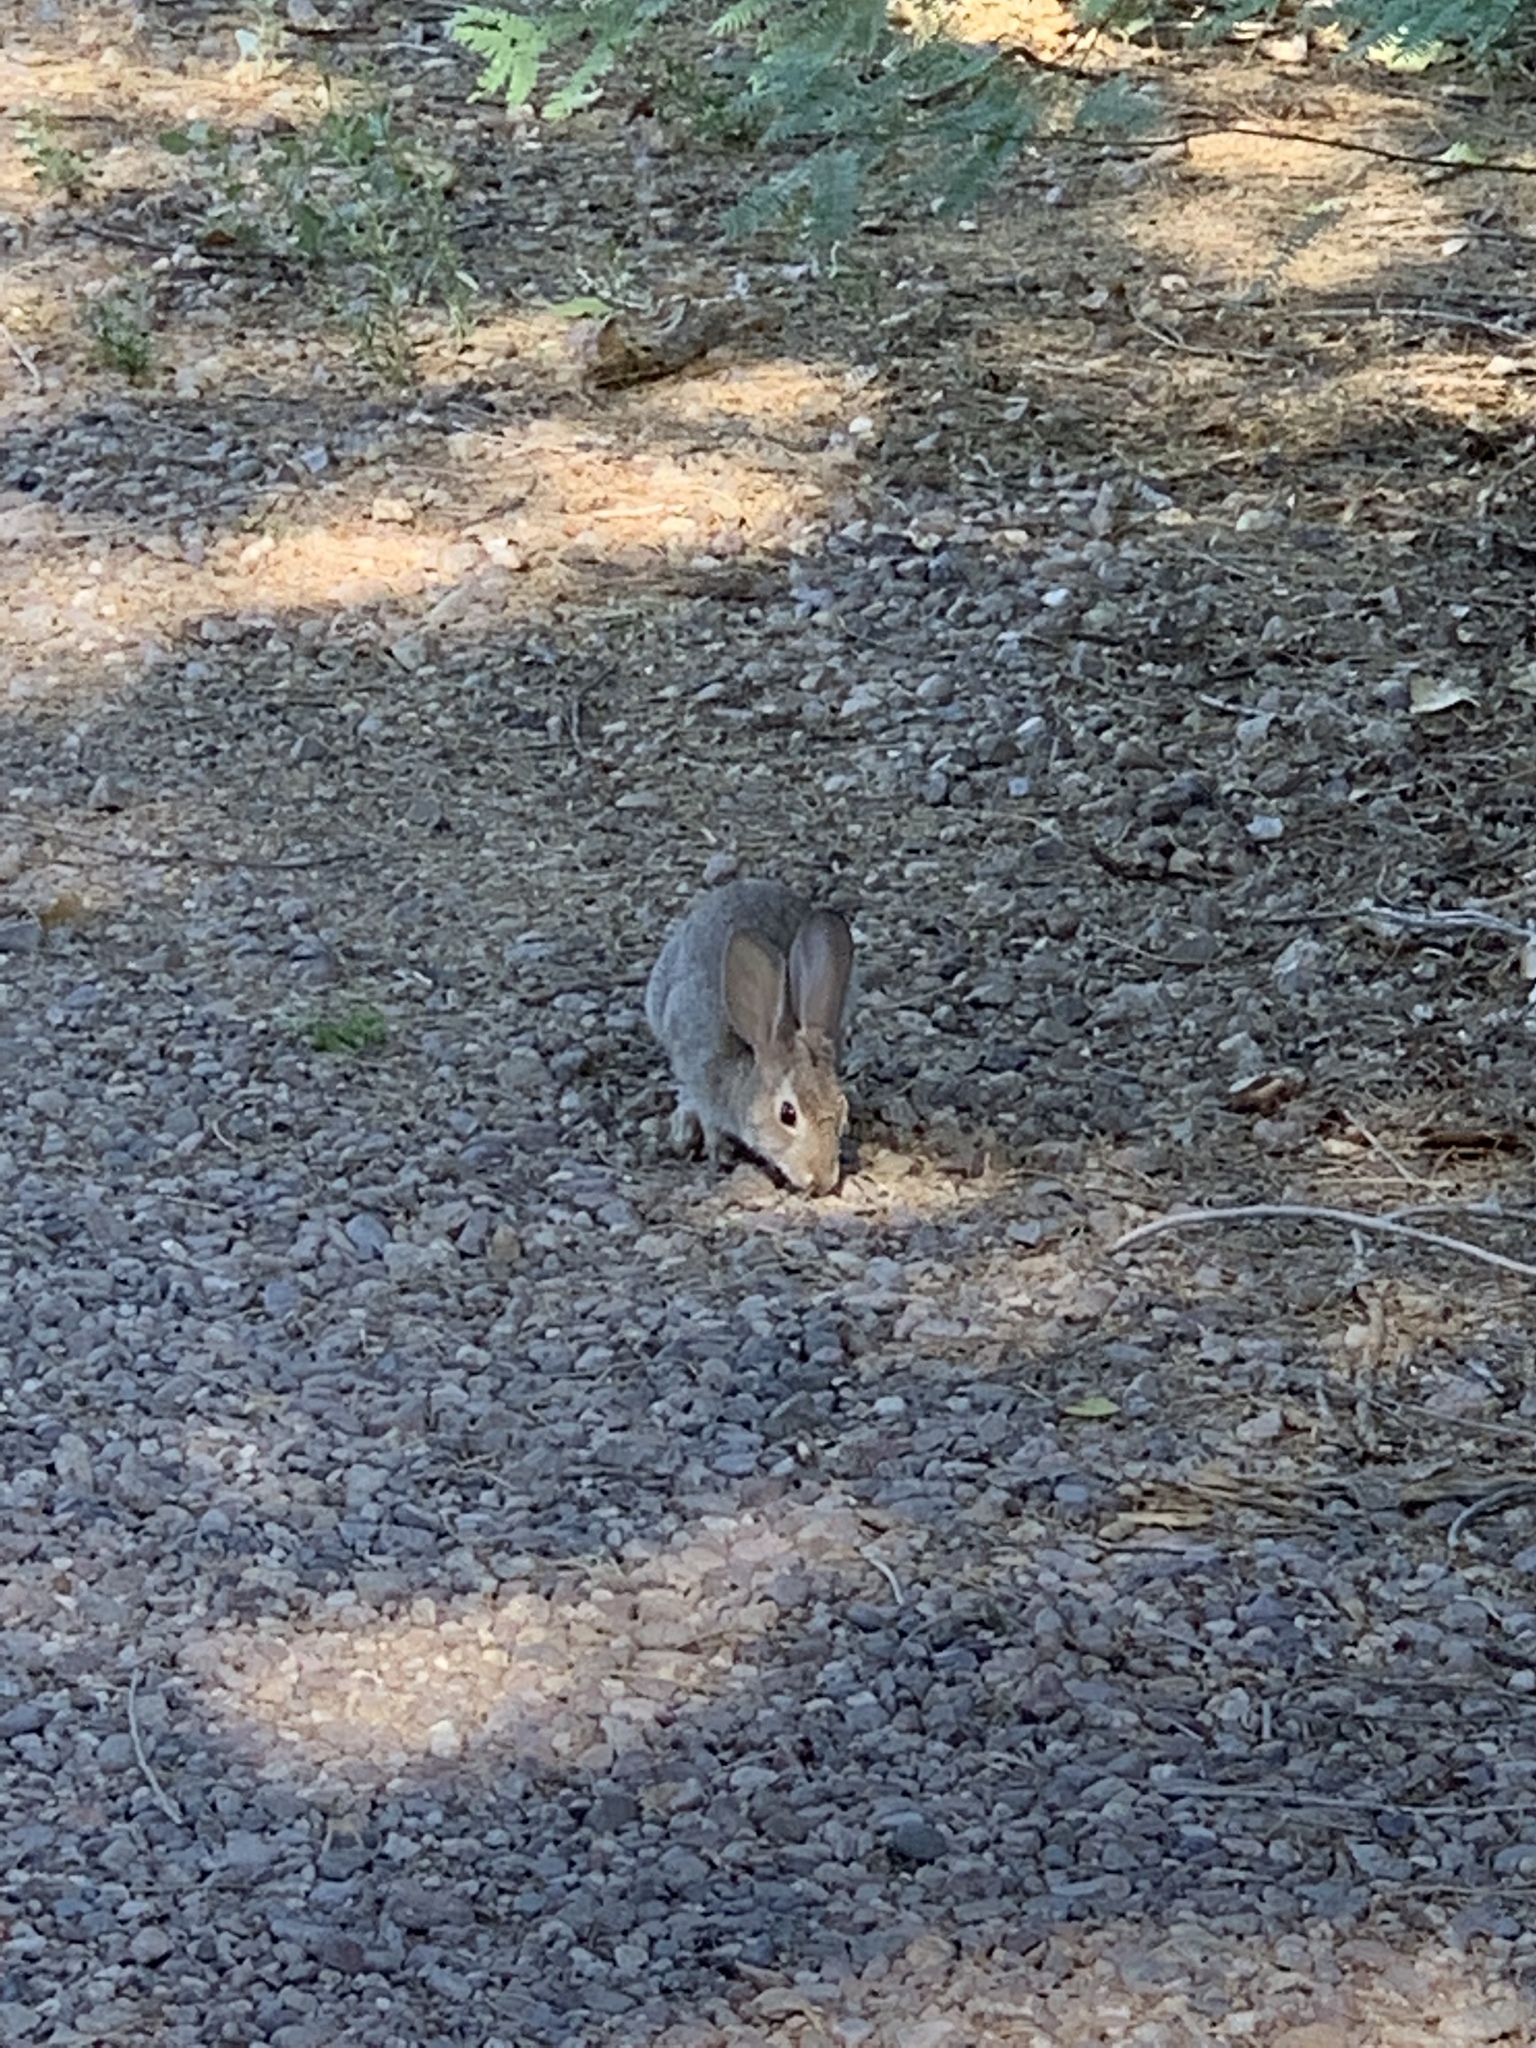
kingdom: Animalia
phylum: Chordata
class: Mammalia
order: Lagomorpha
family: Leporidae
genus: Sylvilagus
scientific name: Sylvilagus audubonii
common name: Desert cottontail
